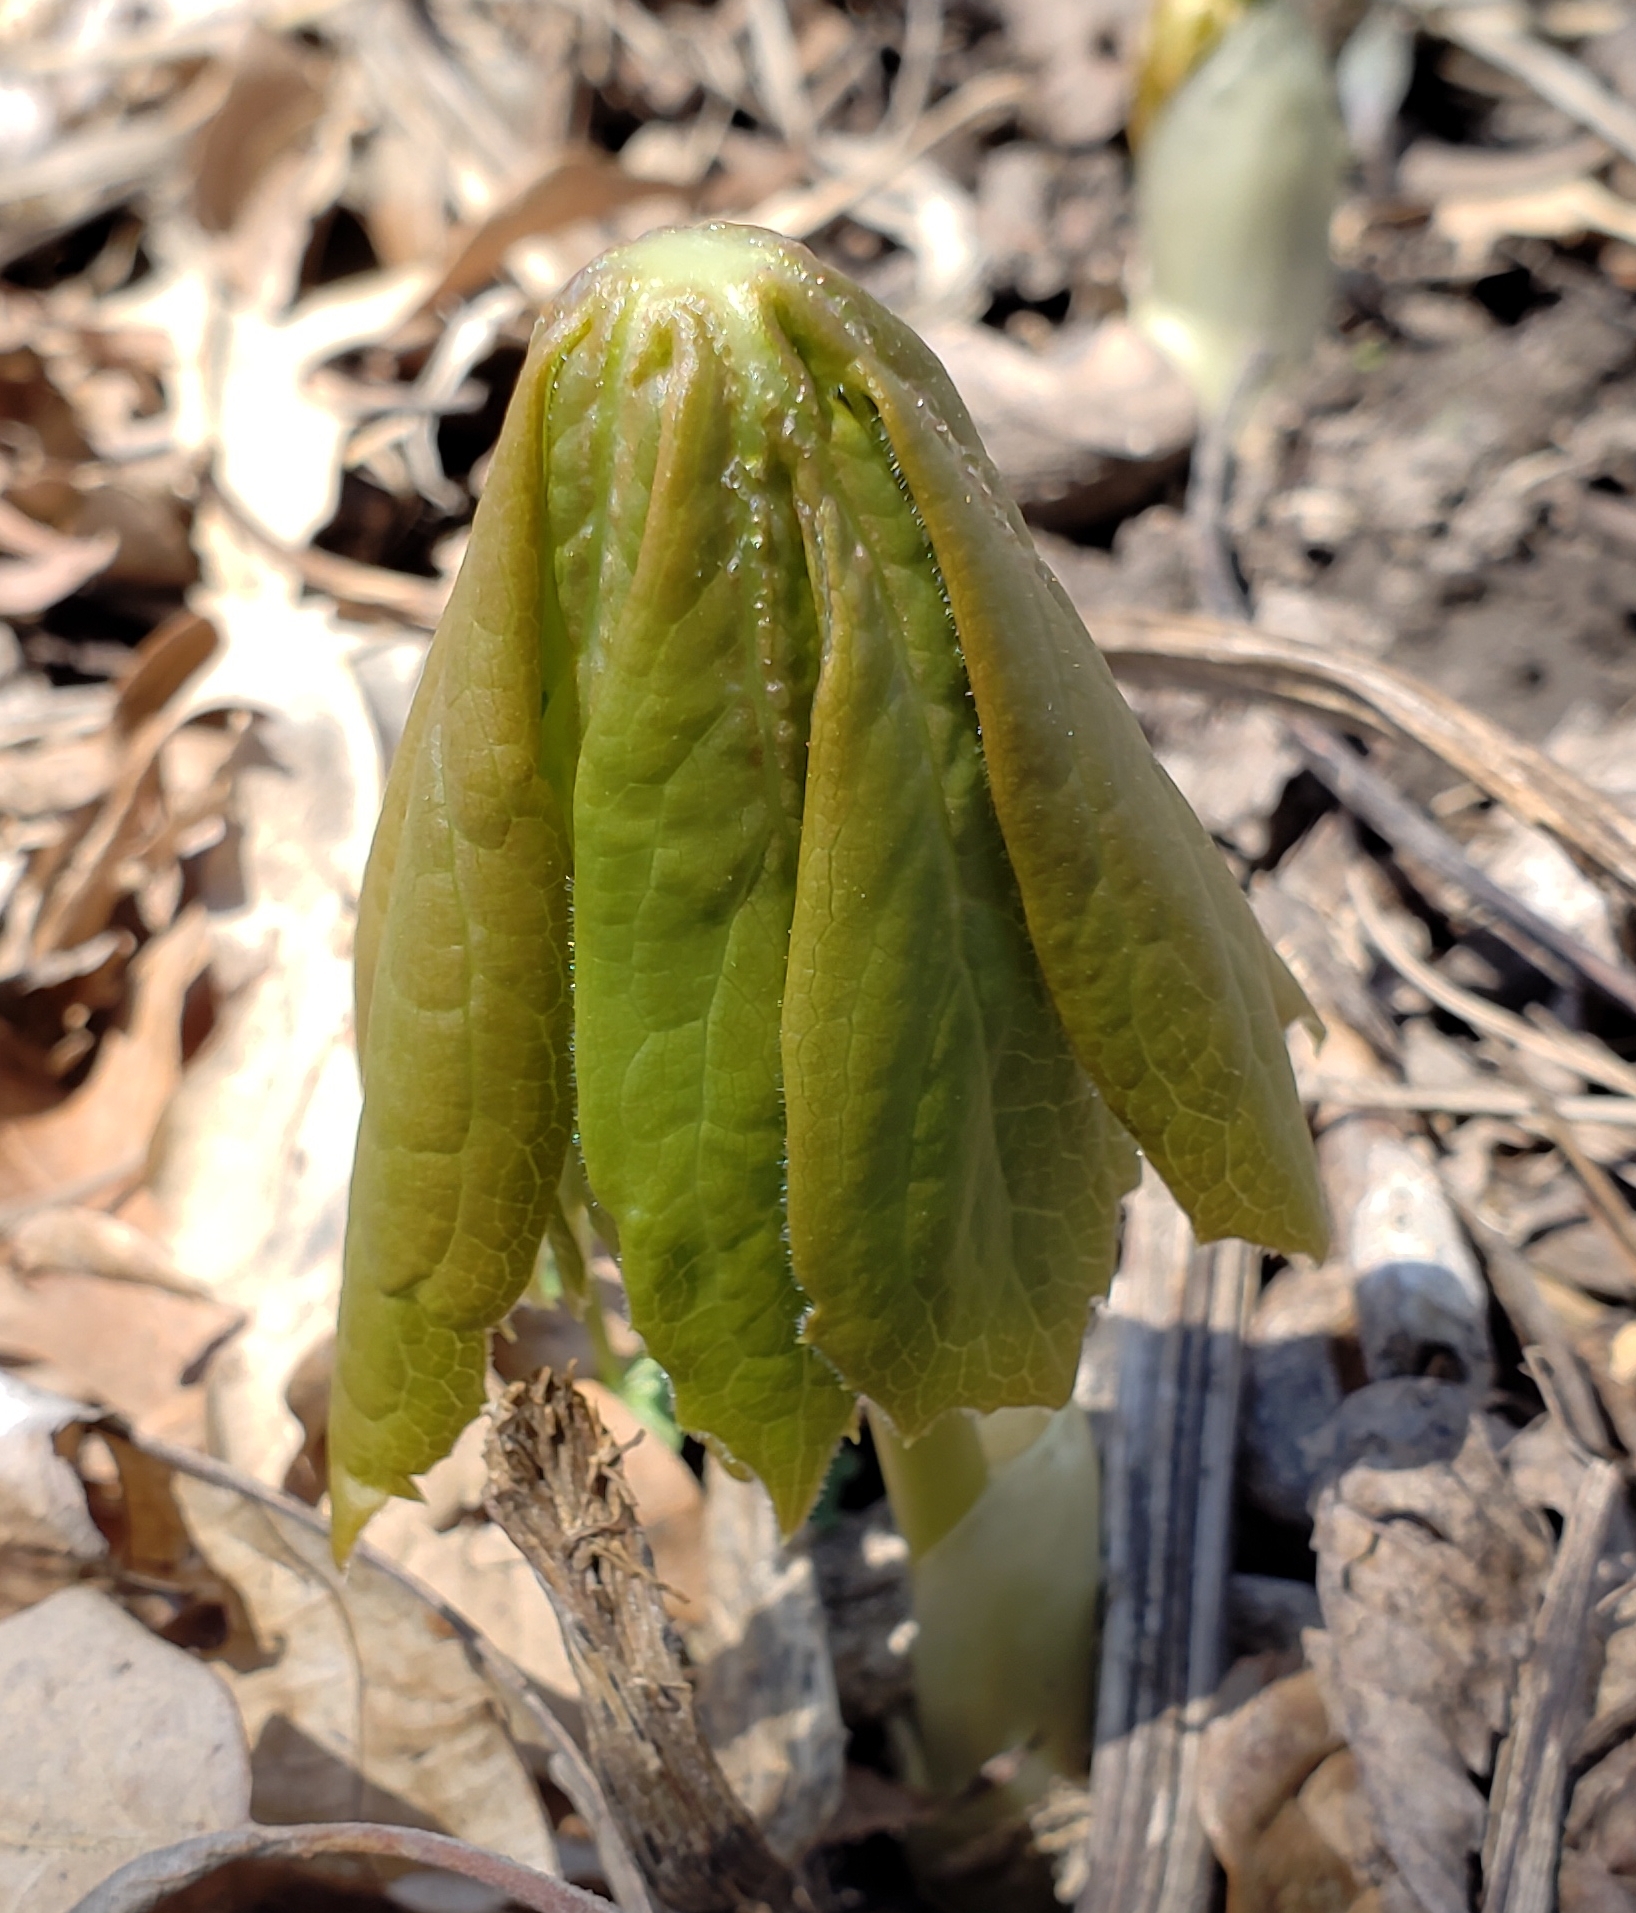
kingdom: Plantae
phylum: Tracheophyta
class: Magnoliopsida
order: Ranunculales
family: Berberidaceae
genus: Podophyllum
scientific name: Podophyllum peltatum
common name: Wild mandrake
